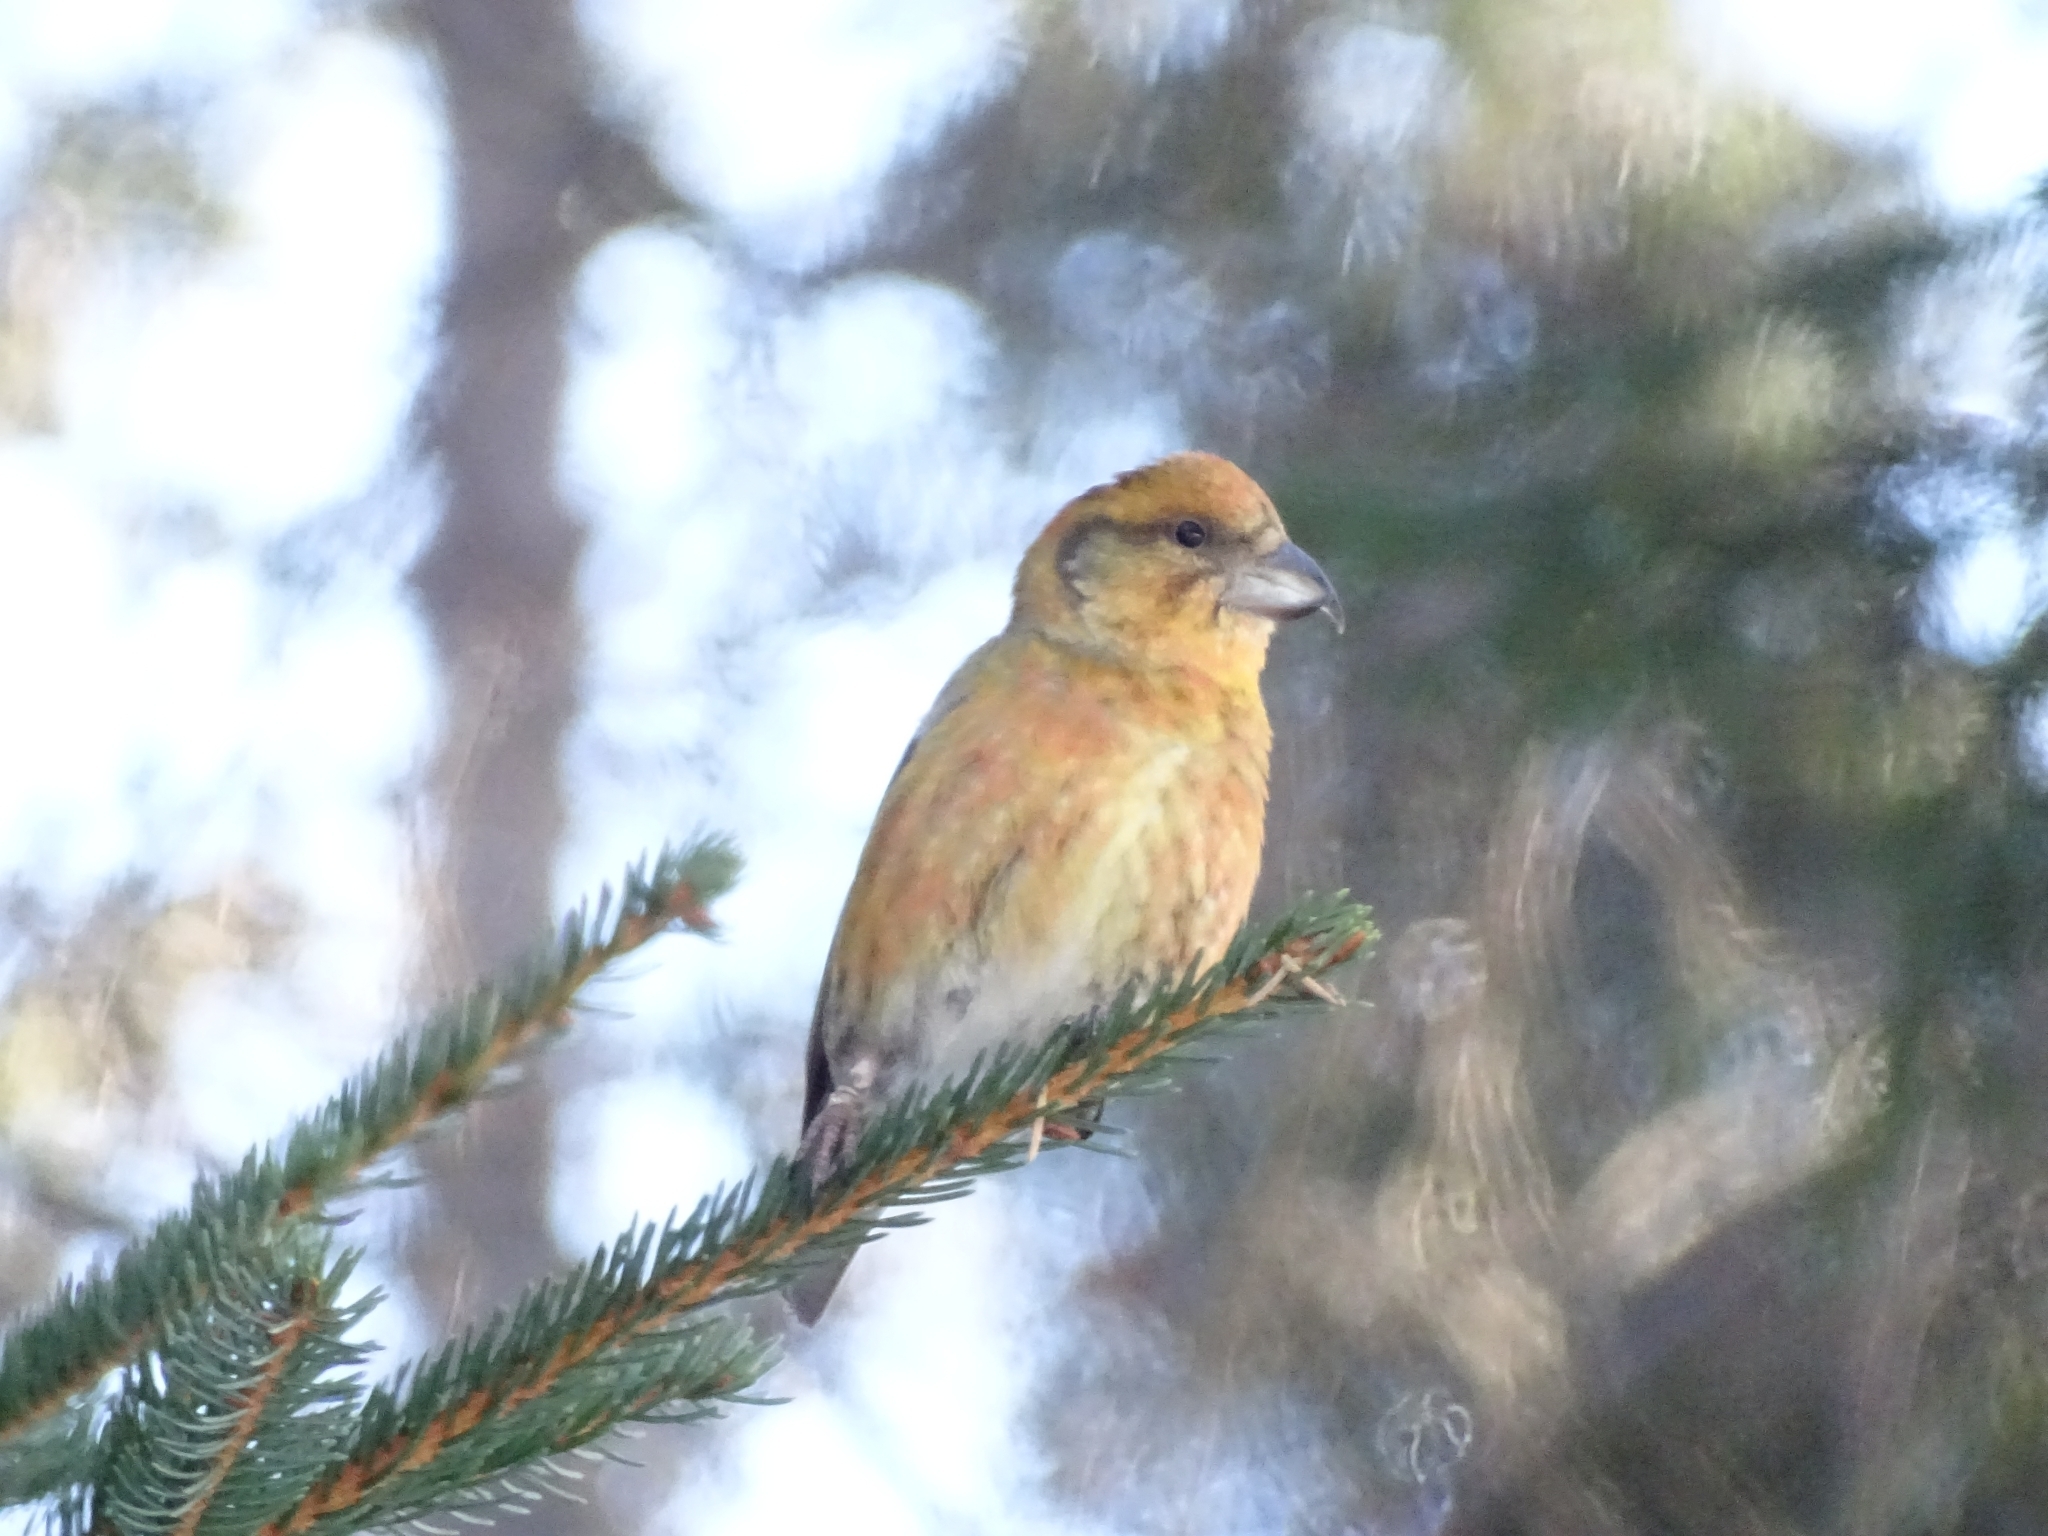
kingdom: Animalia
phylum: Chordata
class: Aves
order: Passeriformes
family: Fringillidae
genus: Loxia
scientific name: Loxia curvirostra
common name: Red crossbill
